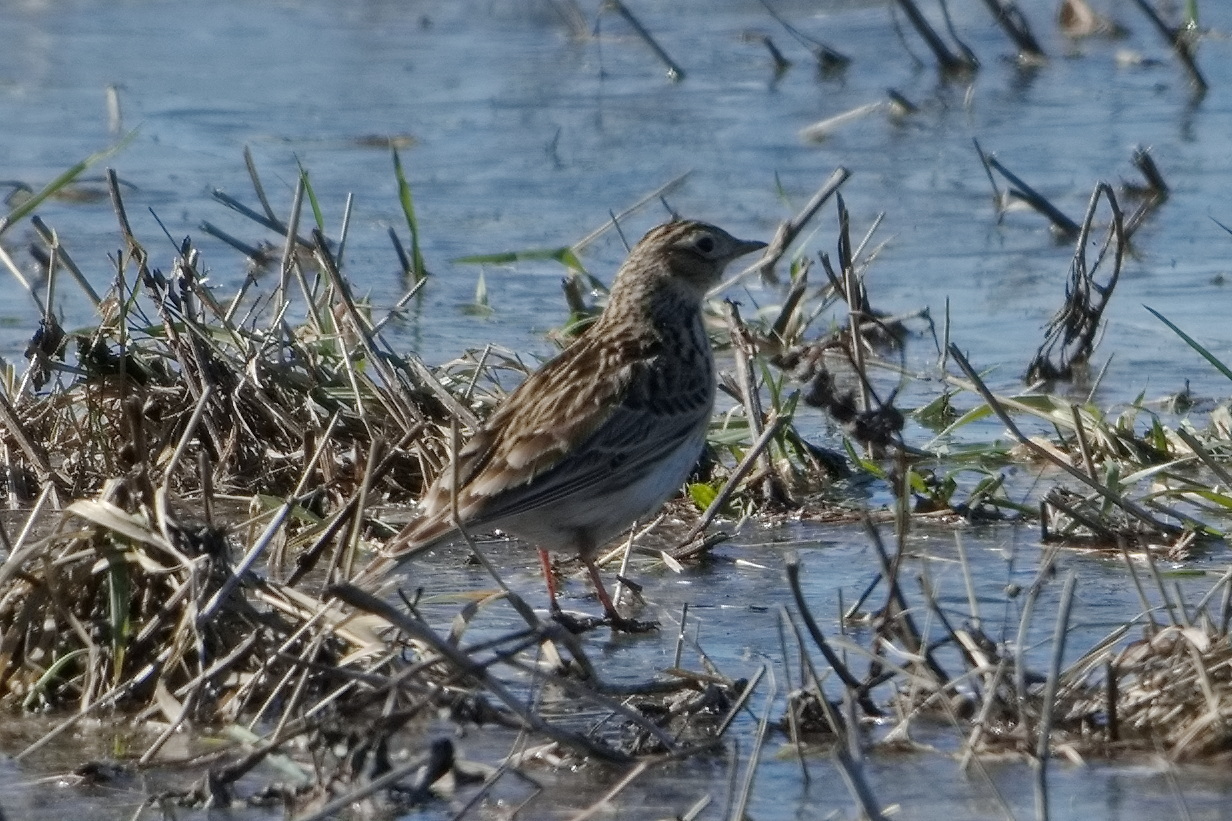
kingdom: Animalia
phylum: Chordata
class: Aves
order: Passeriformes
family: Alaudidae
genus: Alauda
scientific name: Alauda arvensis
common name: Eurasian skylark
